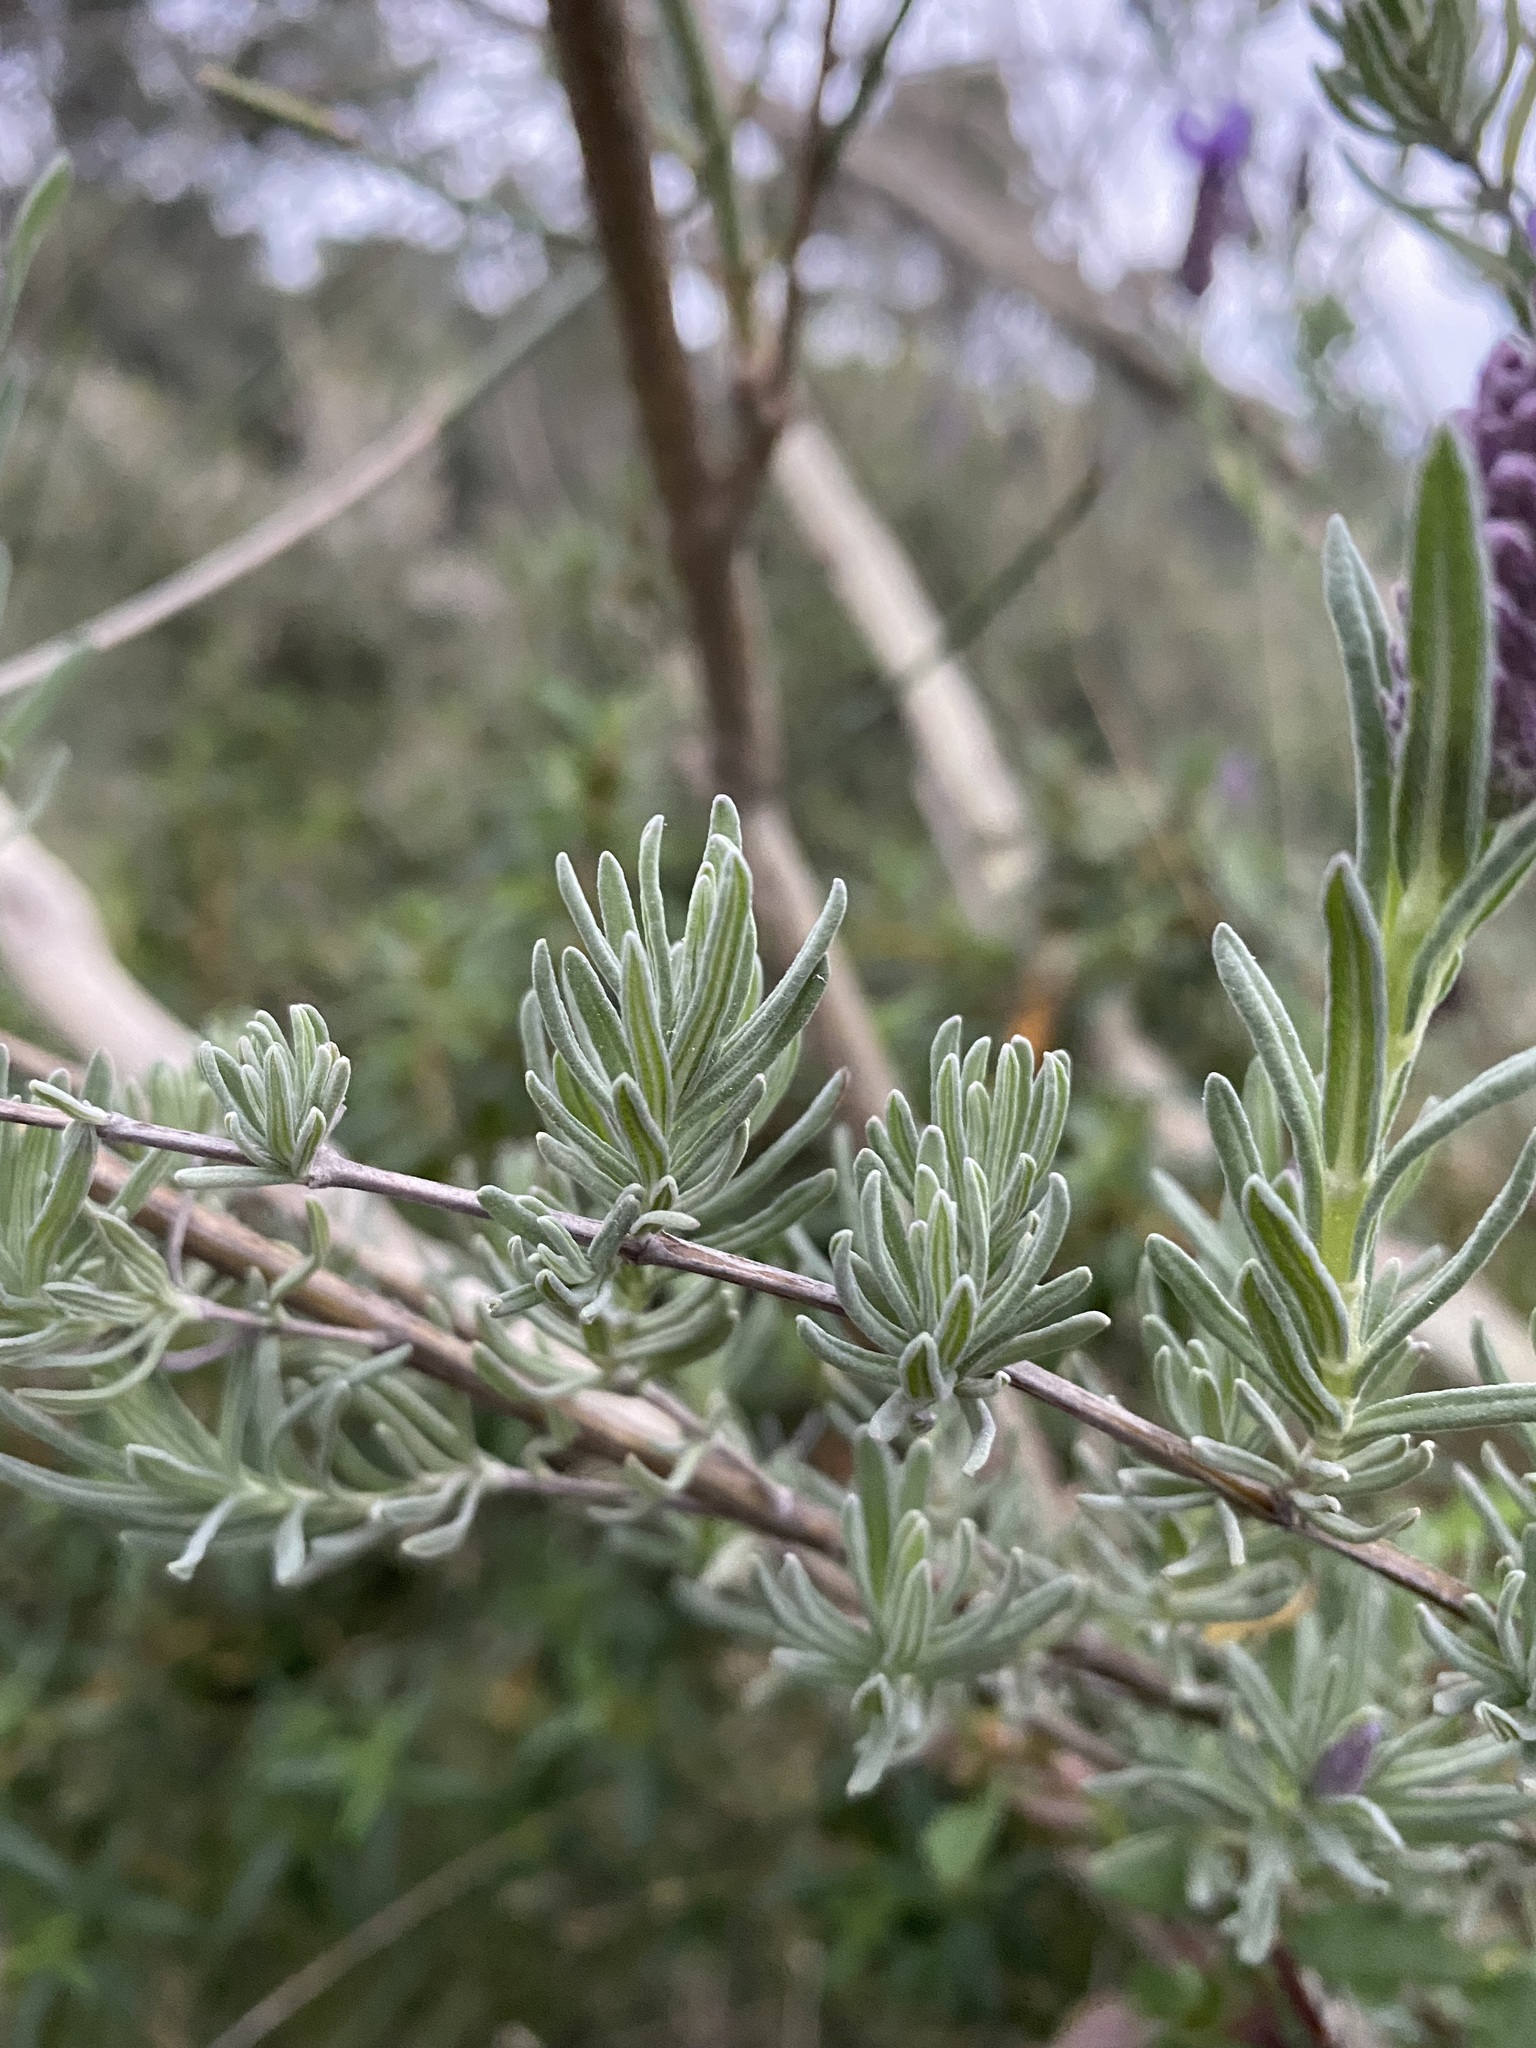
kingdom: Plantae
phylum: Tracheophyta
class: Magnoliopsida
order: Lamiales
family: Lamiaceae
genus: Lavandula
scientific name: Lavandula stoechas
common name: French lavender
